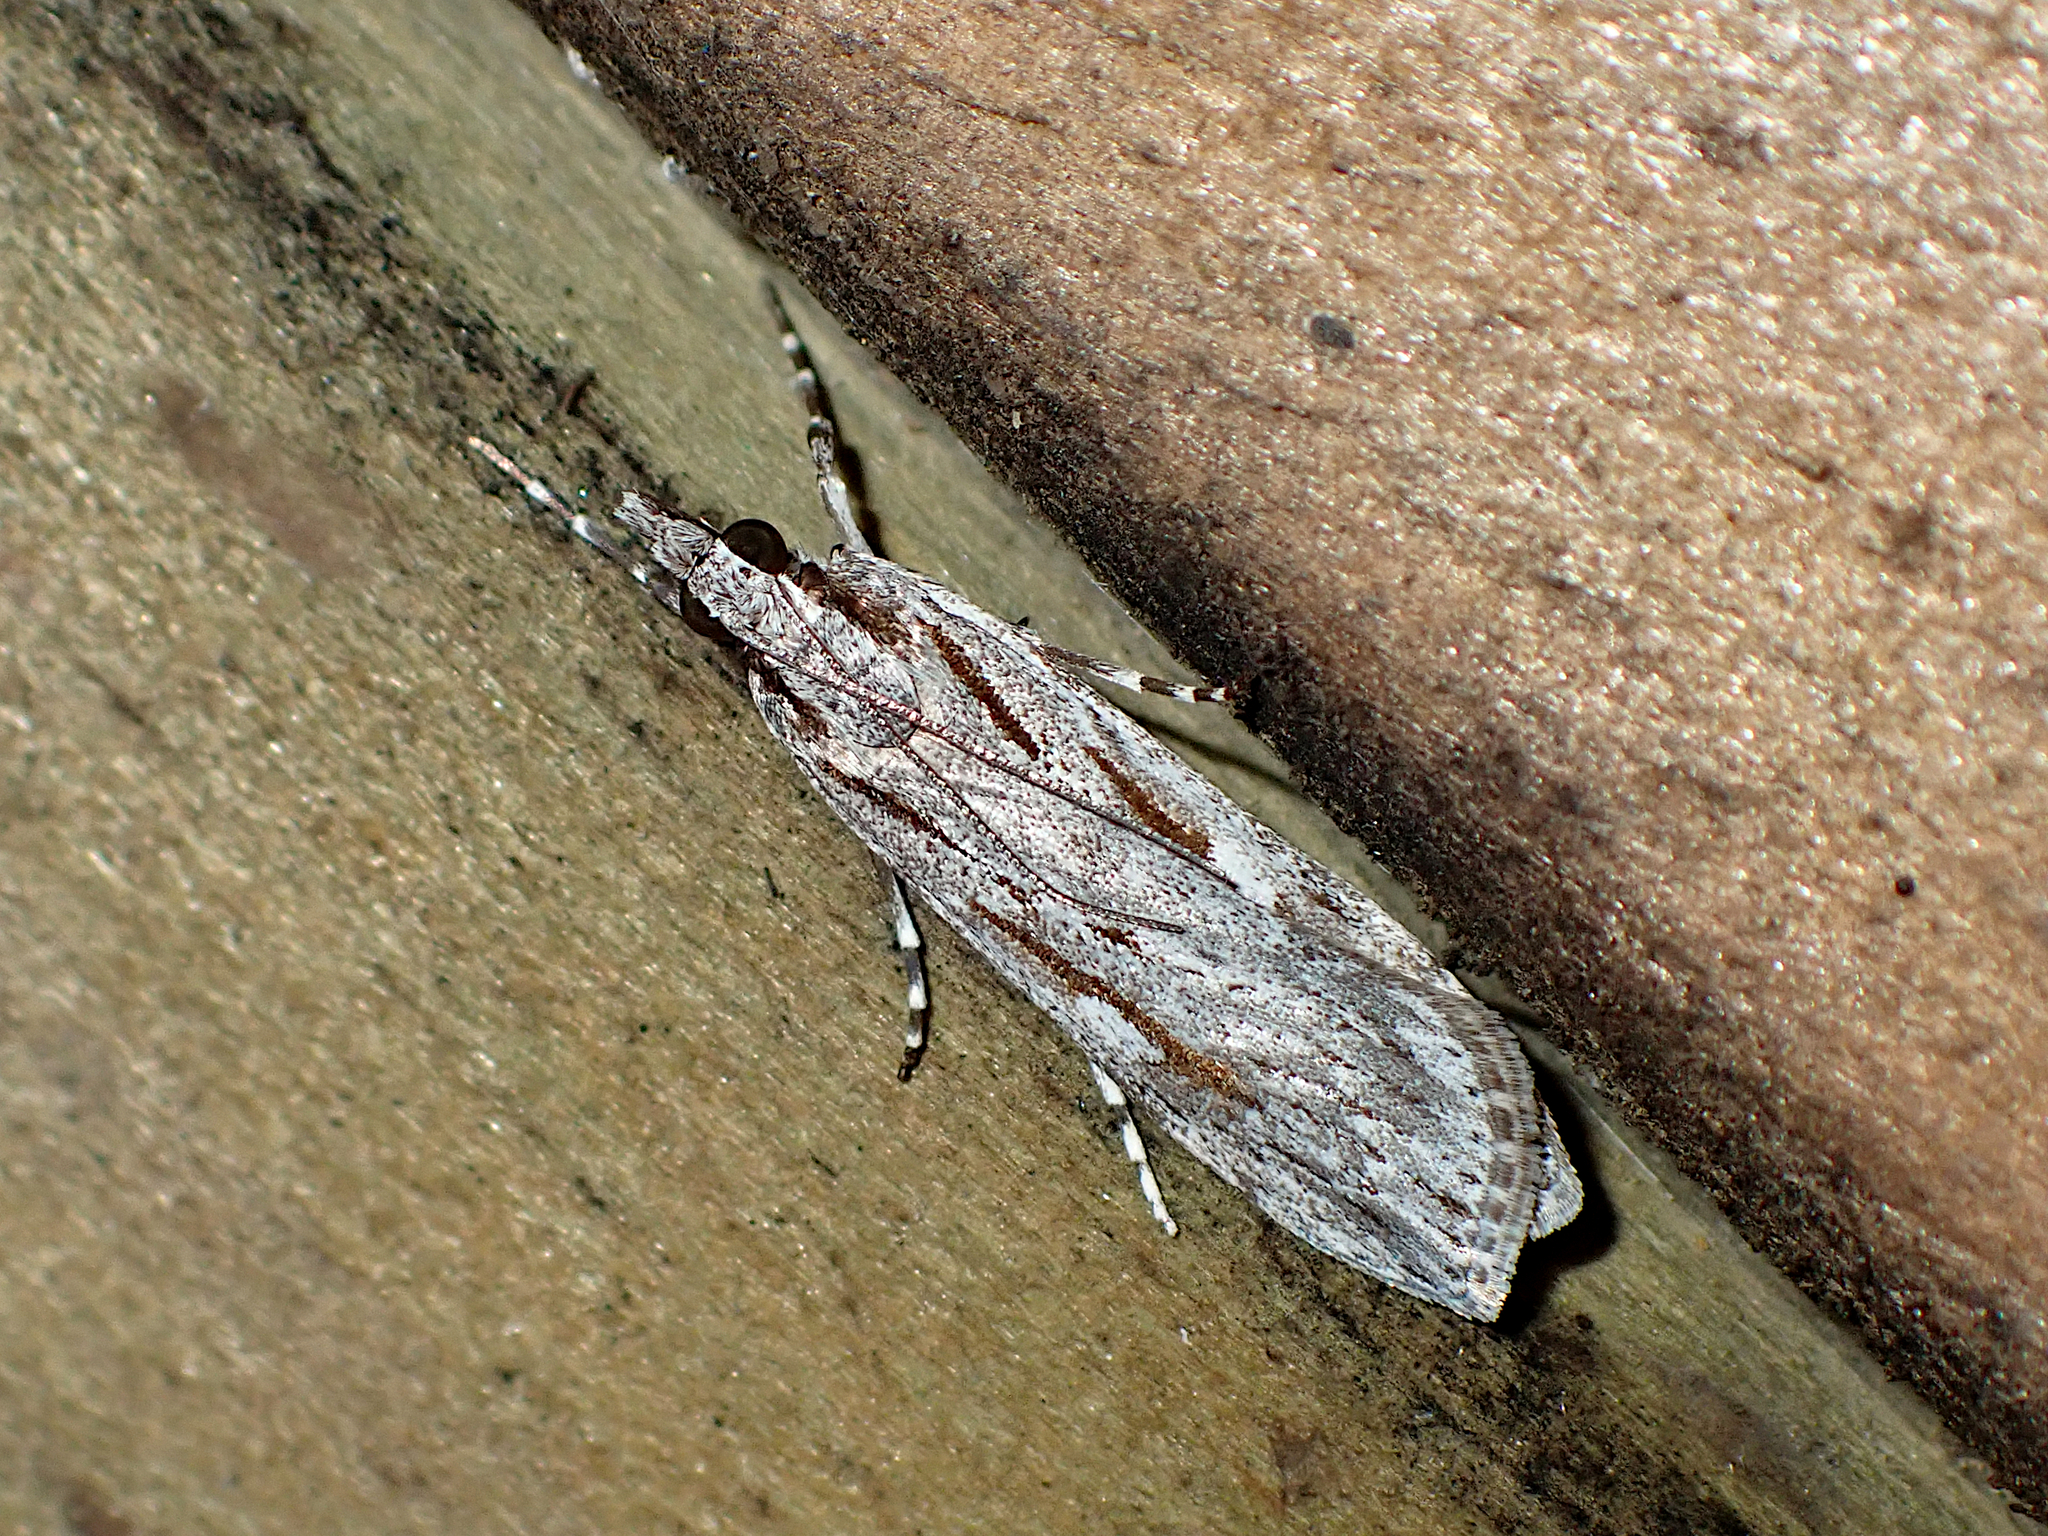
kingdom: Animalia
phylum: Arthropoda
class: Insecta
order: Lepidoptera
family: Crambidae
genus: Scoparia
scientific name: Scoparia indistinctalis
